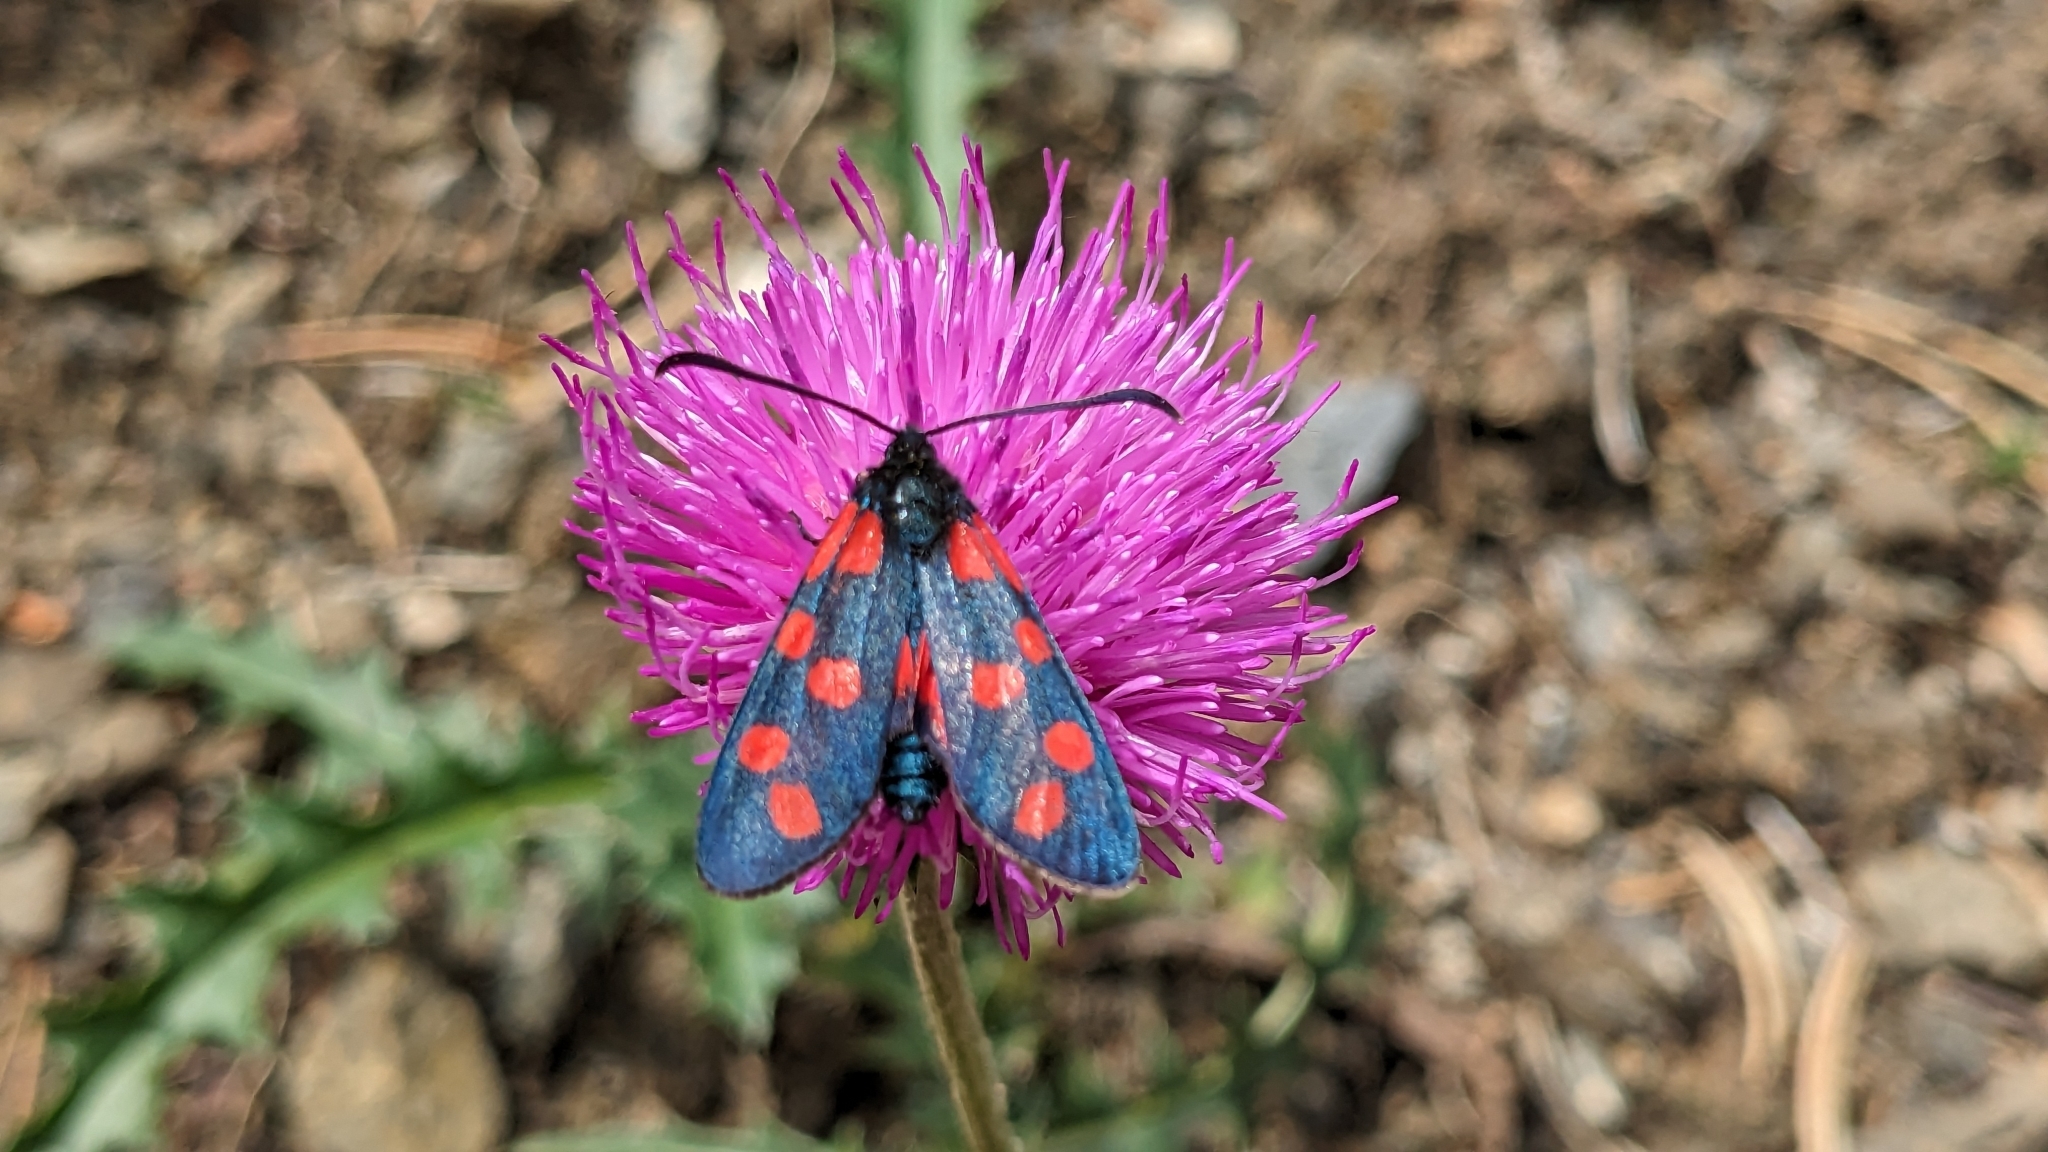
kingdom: Animalia
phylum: Arthropoda
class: Insecta
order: Lepidoptera
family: Zygaenidae
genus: Zygaena
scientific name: Zygaena transalpina
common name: Southern six spot burnet
